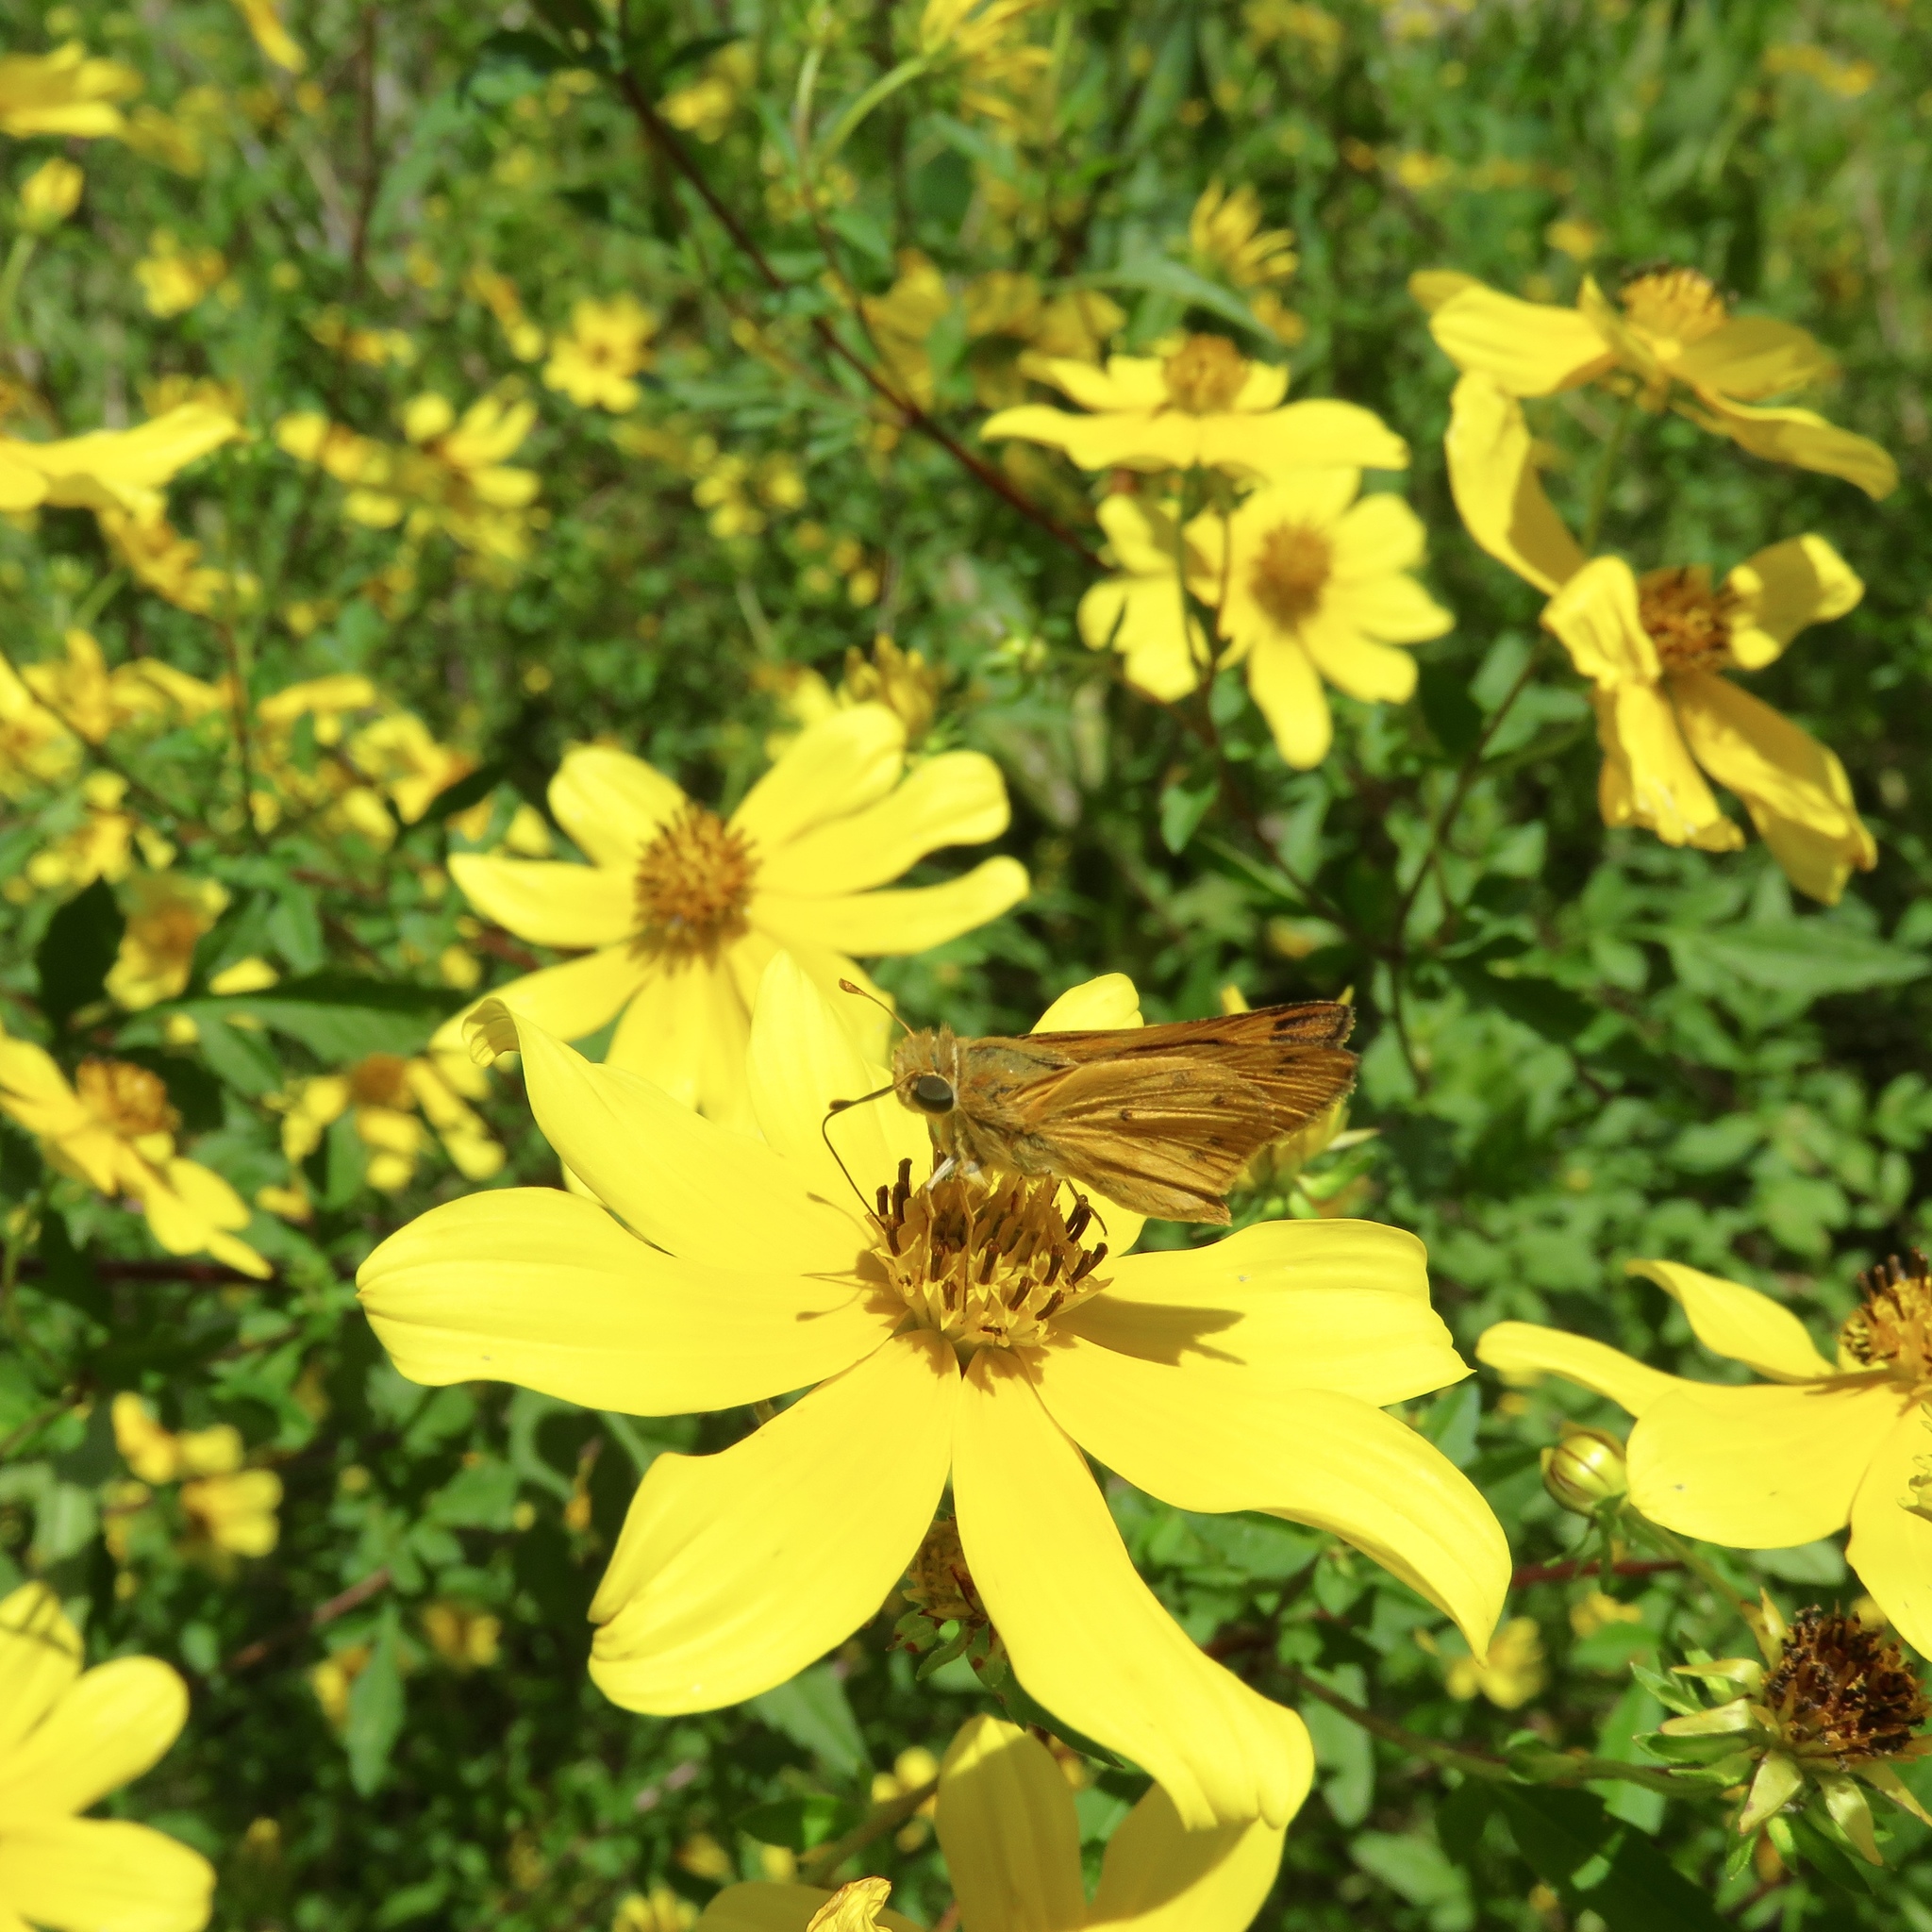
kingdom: Animalia
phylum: Arthropoda
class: Insecta
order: Lepidoptera
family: Hesperiidae
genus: Hylephila
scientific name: Hylephila phyleus
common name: Fiery skipper
